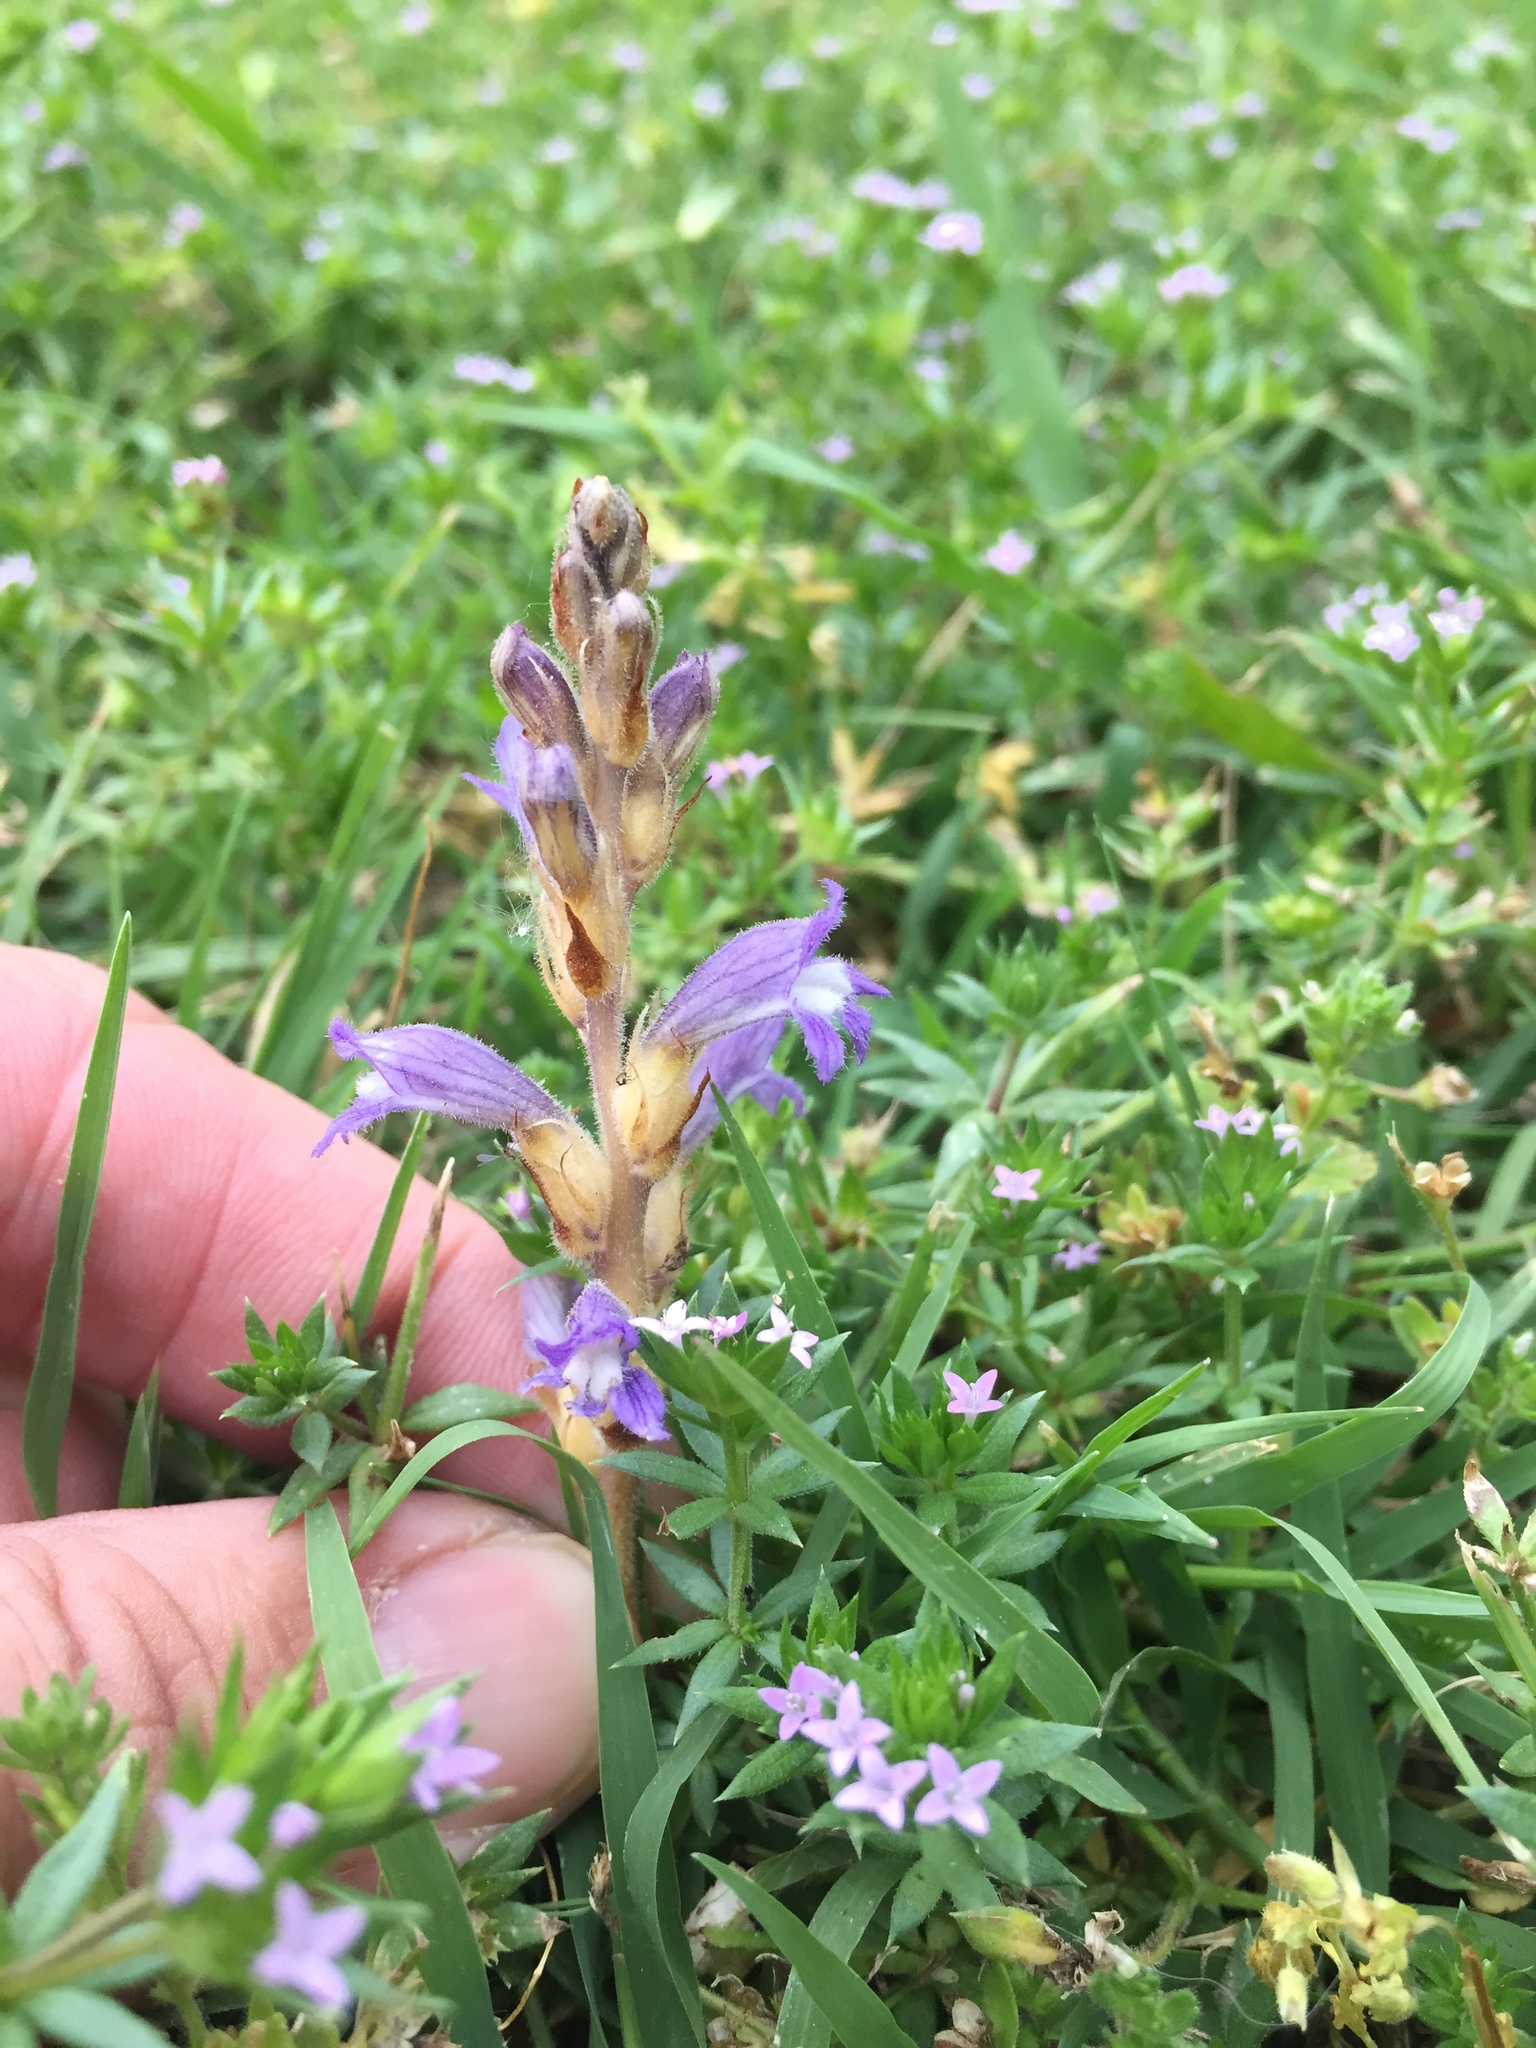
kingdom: Plantae
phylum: Tracheophyta
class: Magnoliopsida
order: Lamiales
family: Orobanchaceae
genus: Phelipanche
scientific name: Phelipanche ramosa
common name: Branched broomrape
